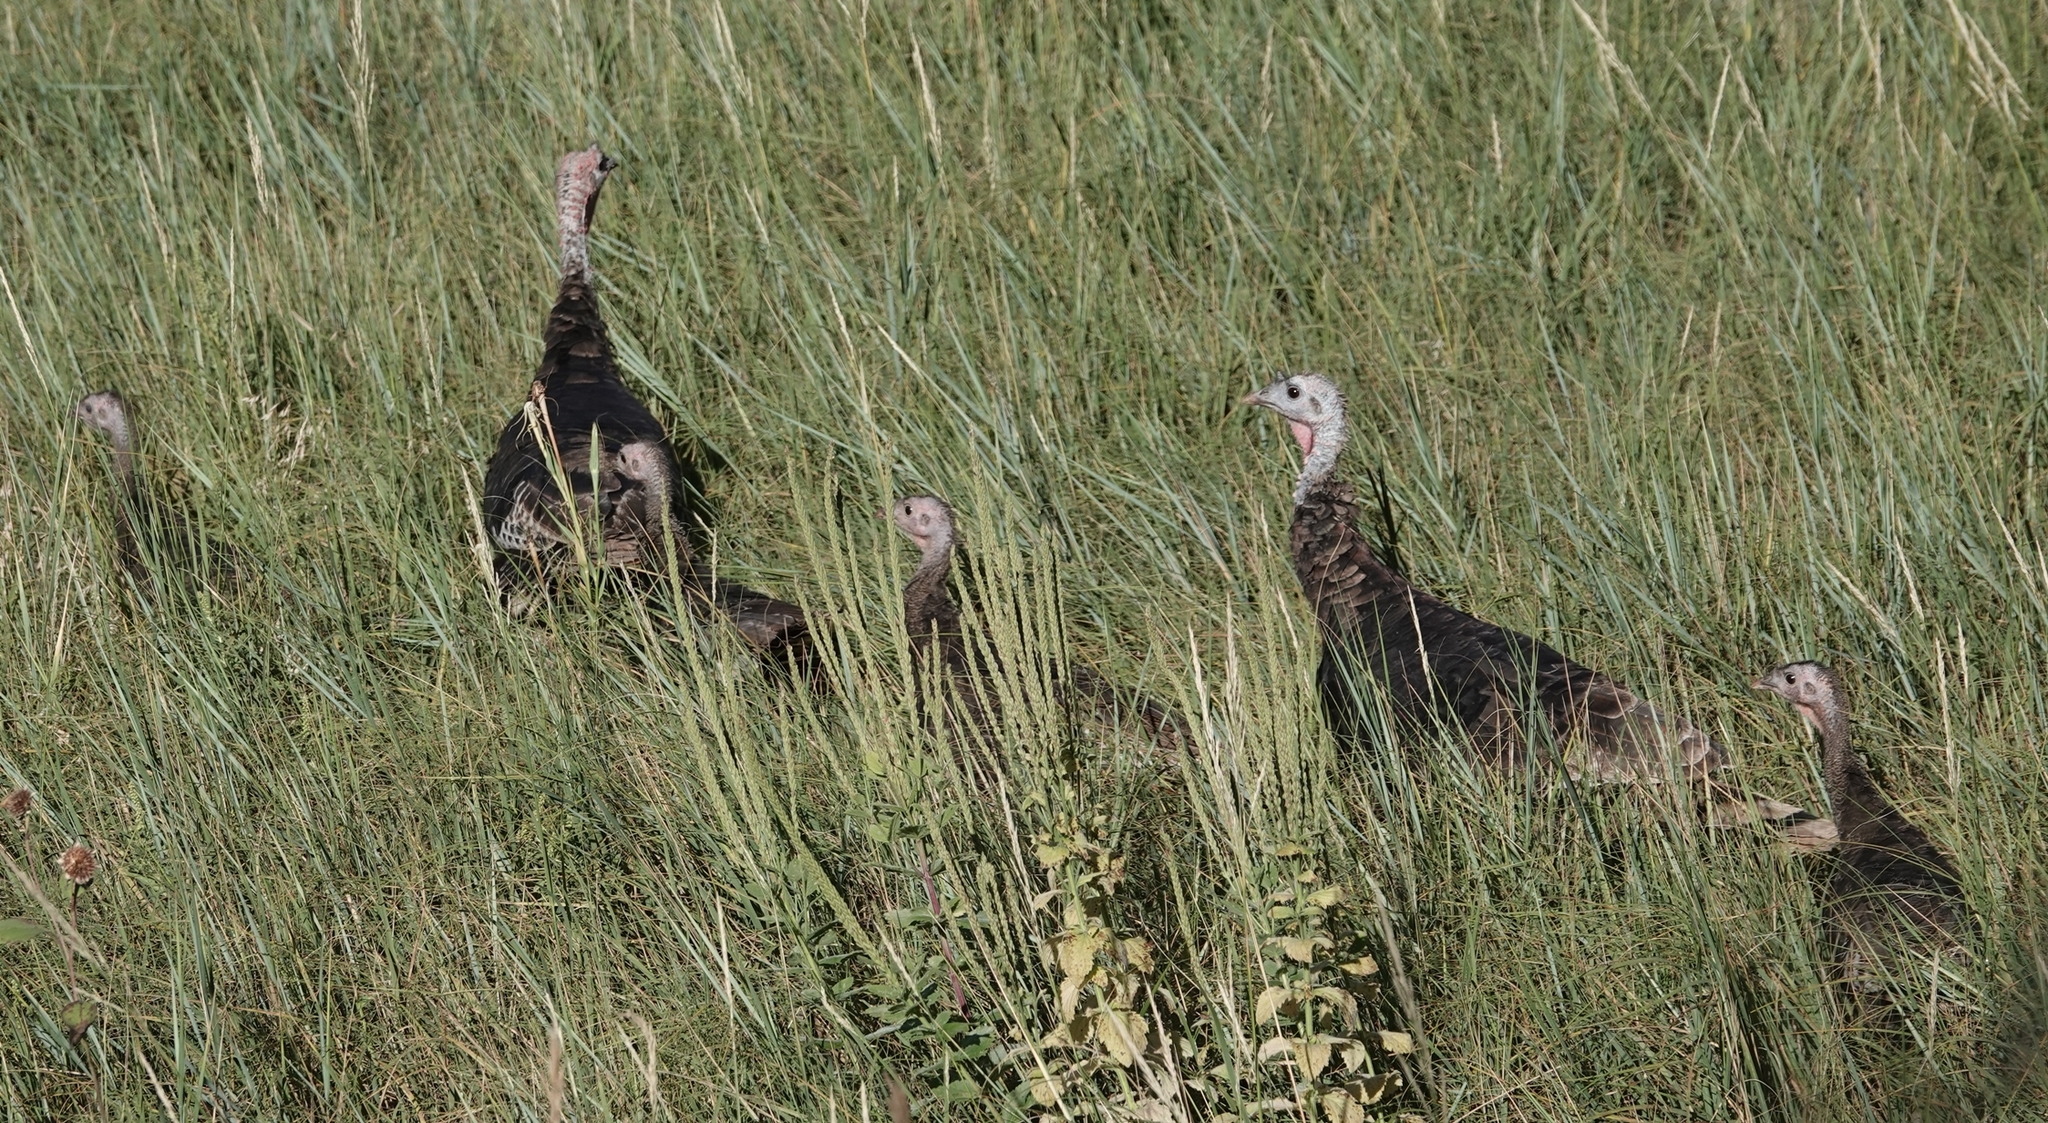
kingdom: Animalia
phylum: Chordata
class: Aves
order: Galliformes
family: Phasianidae
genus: Meleagris
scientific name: Meleagris gallopavo
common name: Wild turkey
